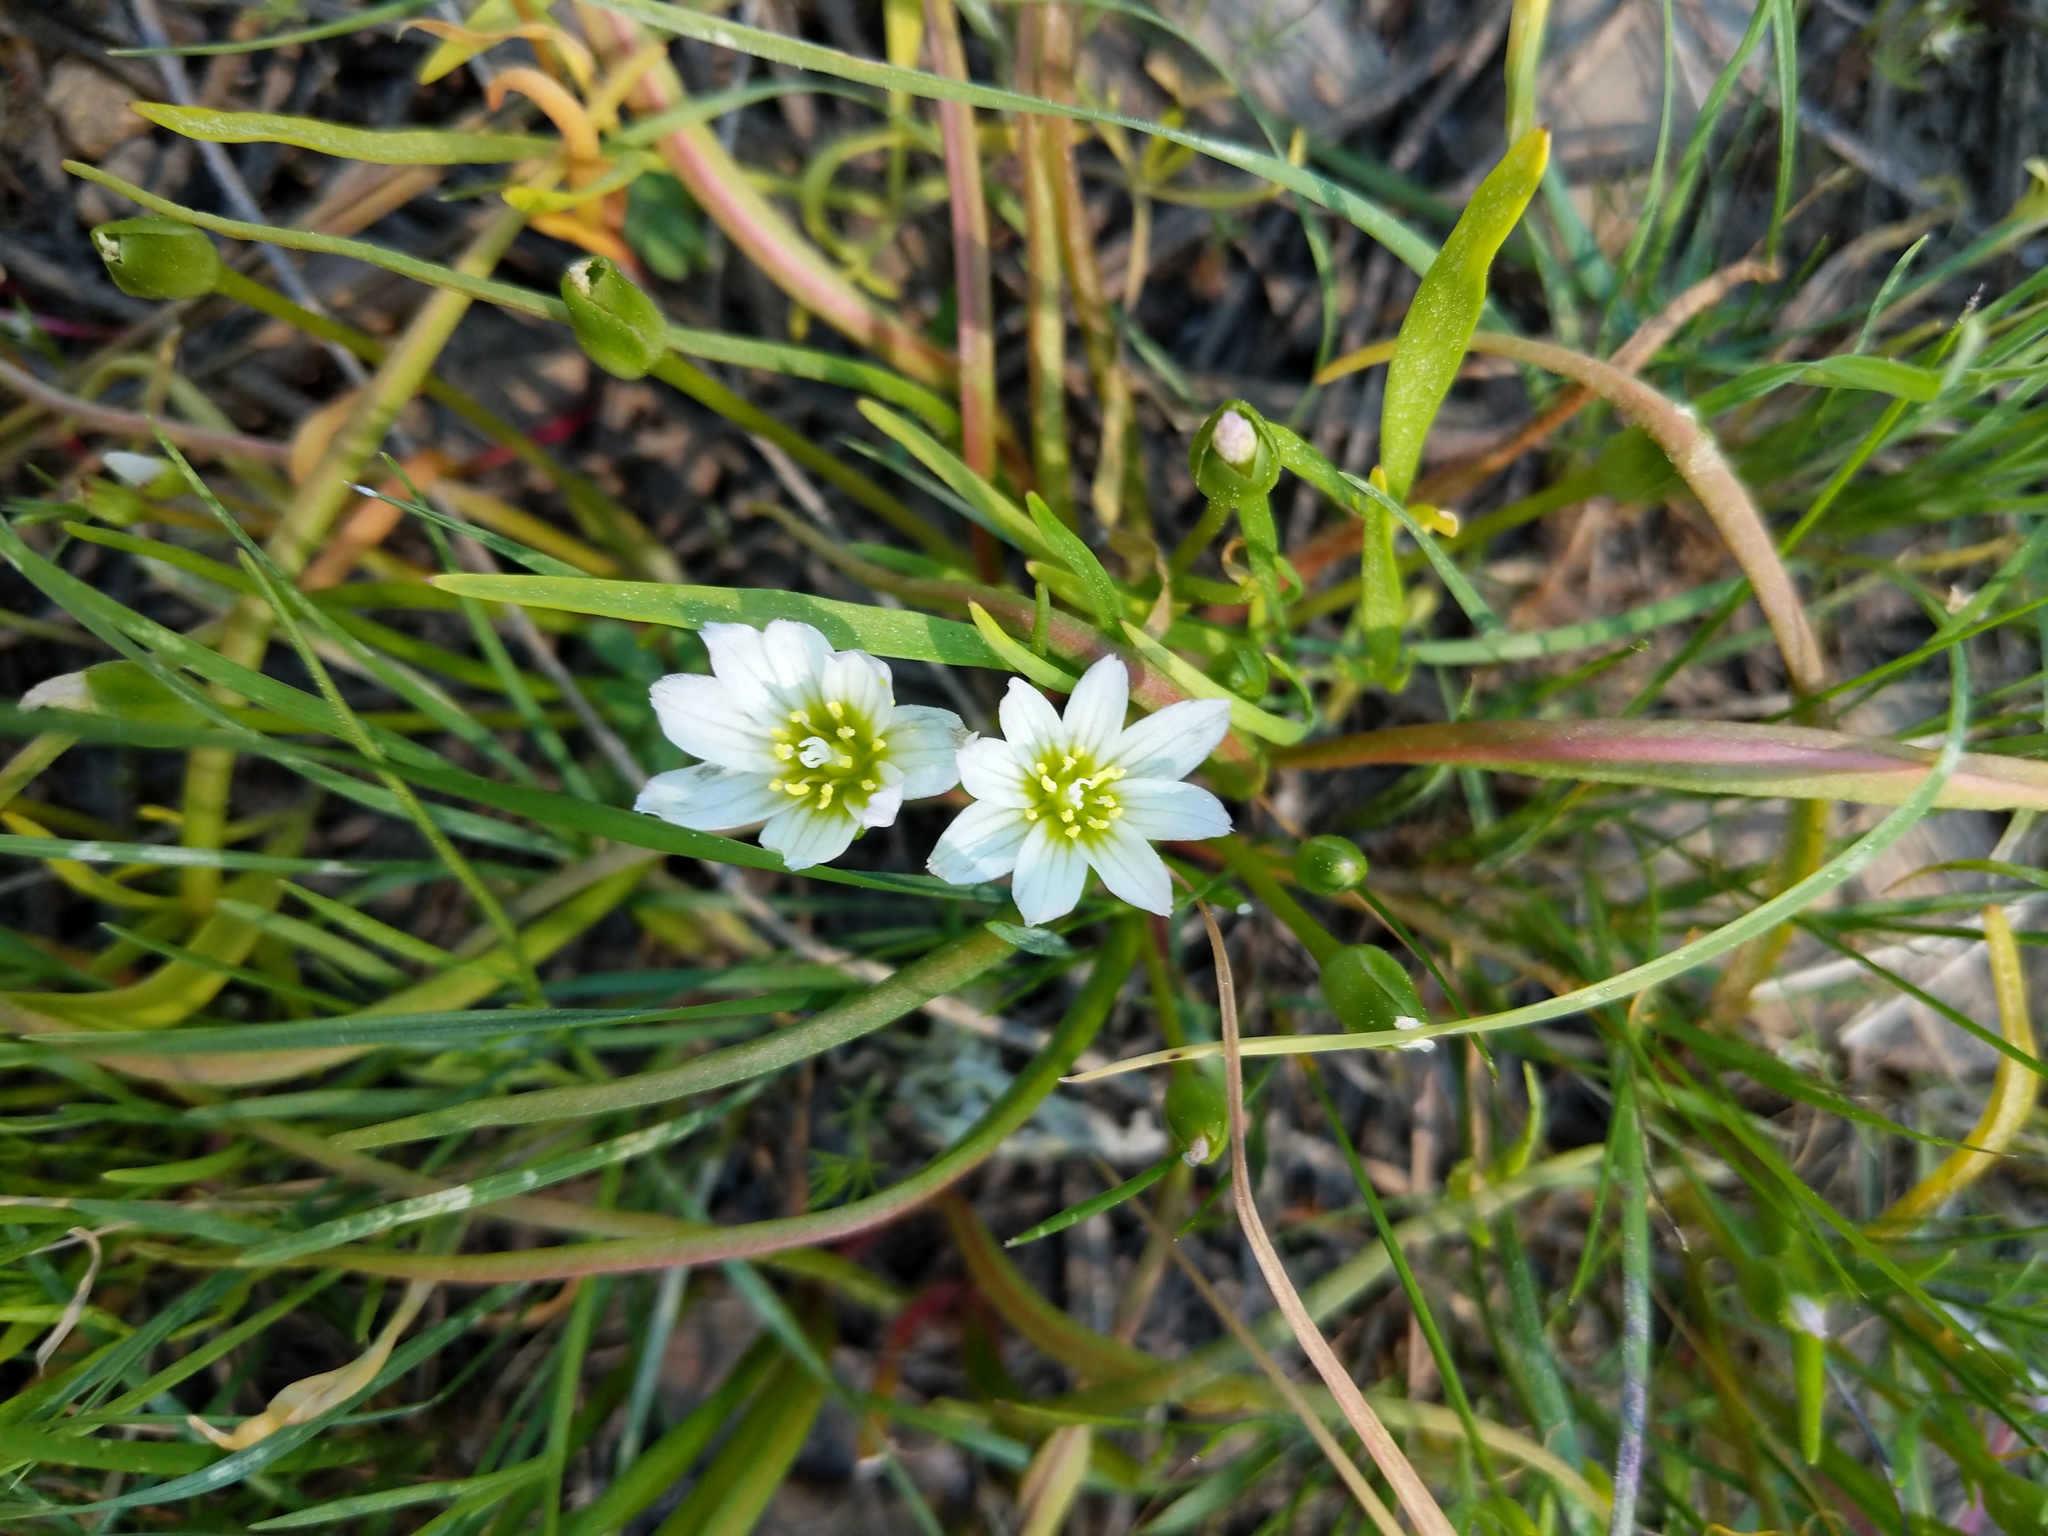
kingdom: Plantae
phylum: Tracheophyta
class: Magnoliopsida
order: Caryophyllales
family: Montiaceae
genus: Lewisia
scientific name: Lewisia nevadensis
